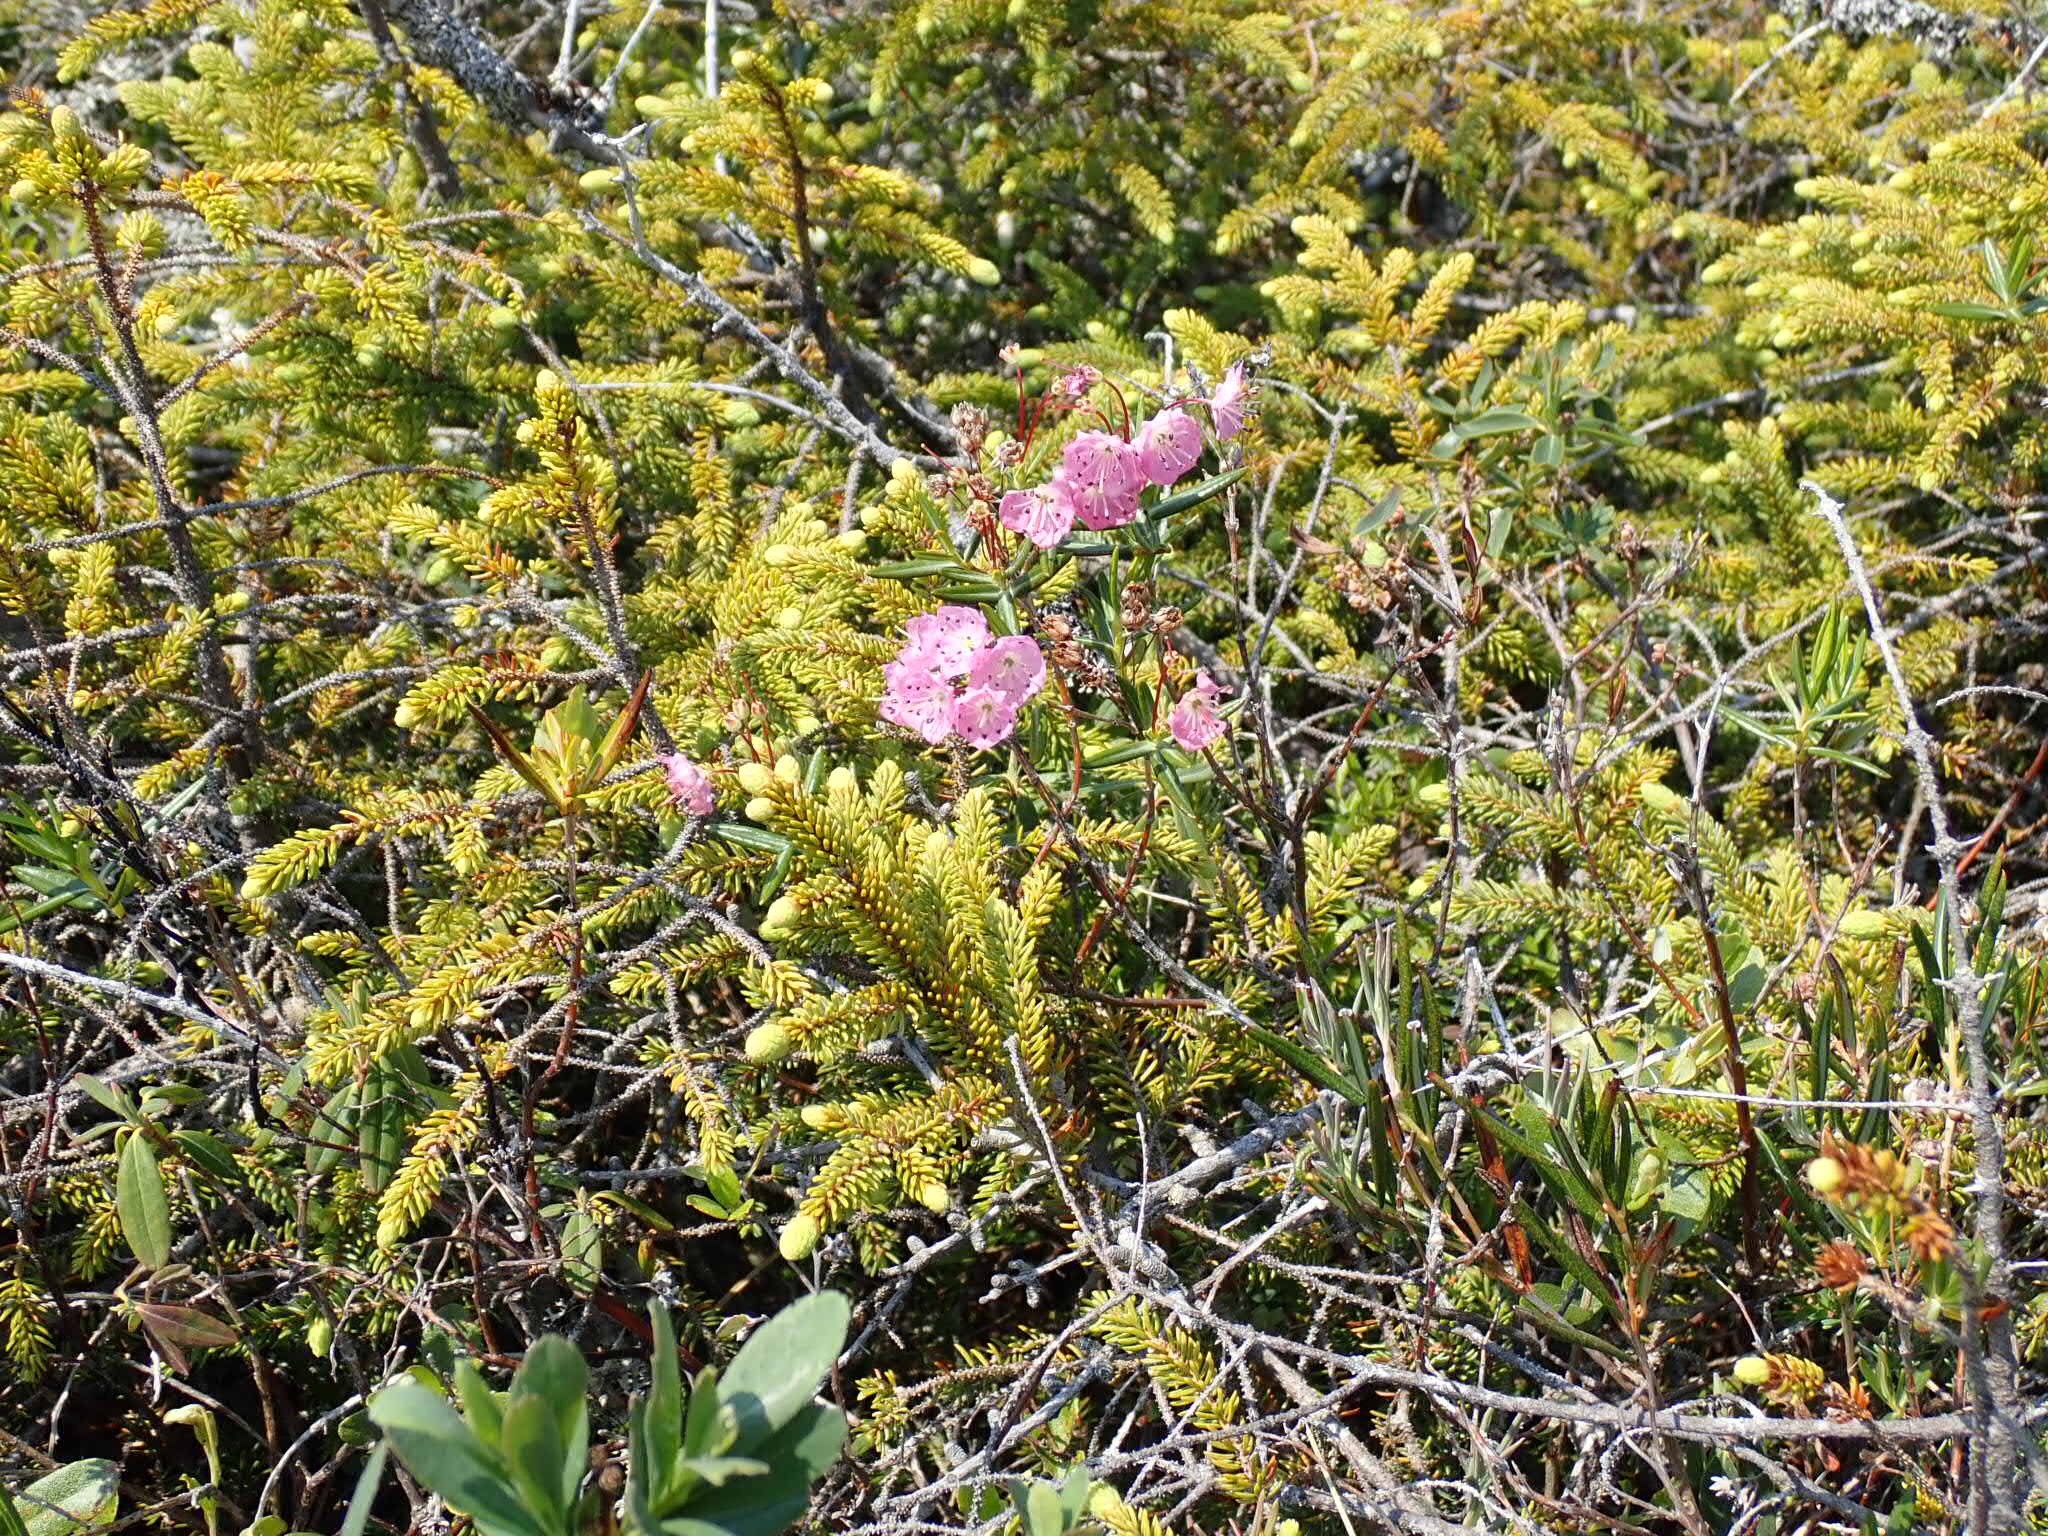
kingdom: Plantae
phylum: Tracheophyta
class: Magnoliopsida
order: Ericales
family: Ericaceae
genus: Kalmia
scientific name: Kalmia polifolia
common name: Bog-laurel
